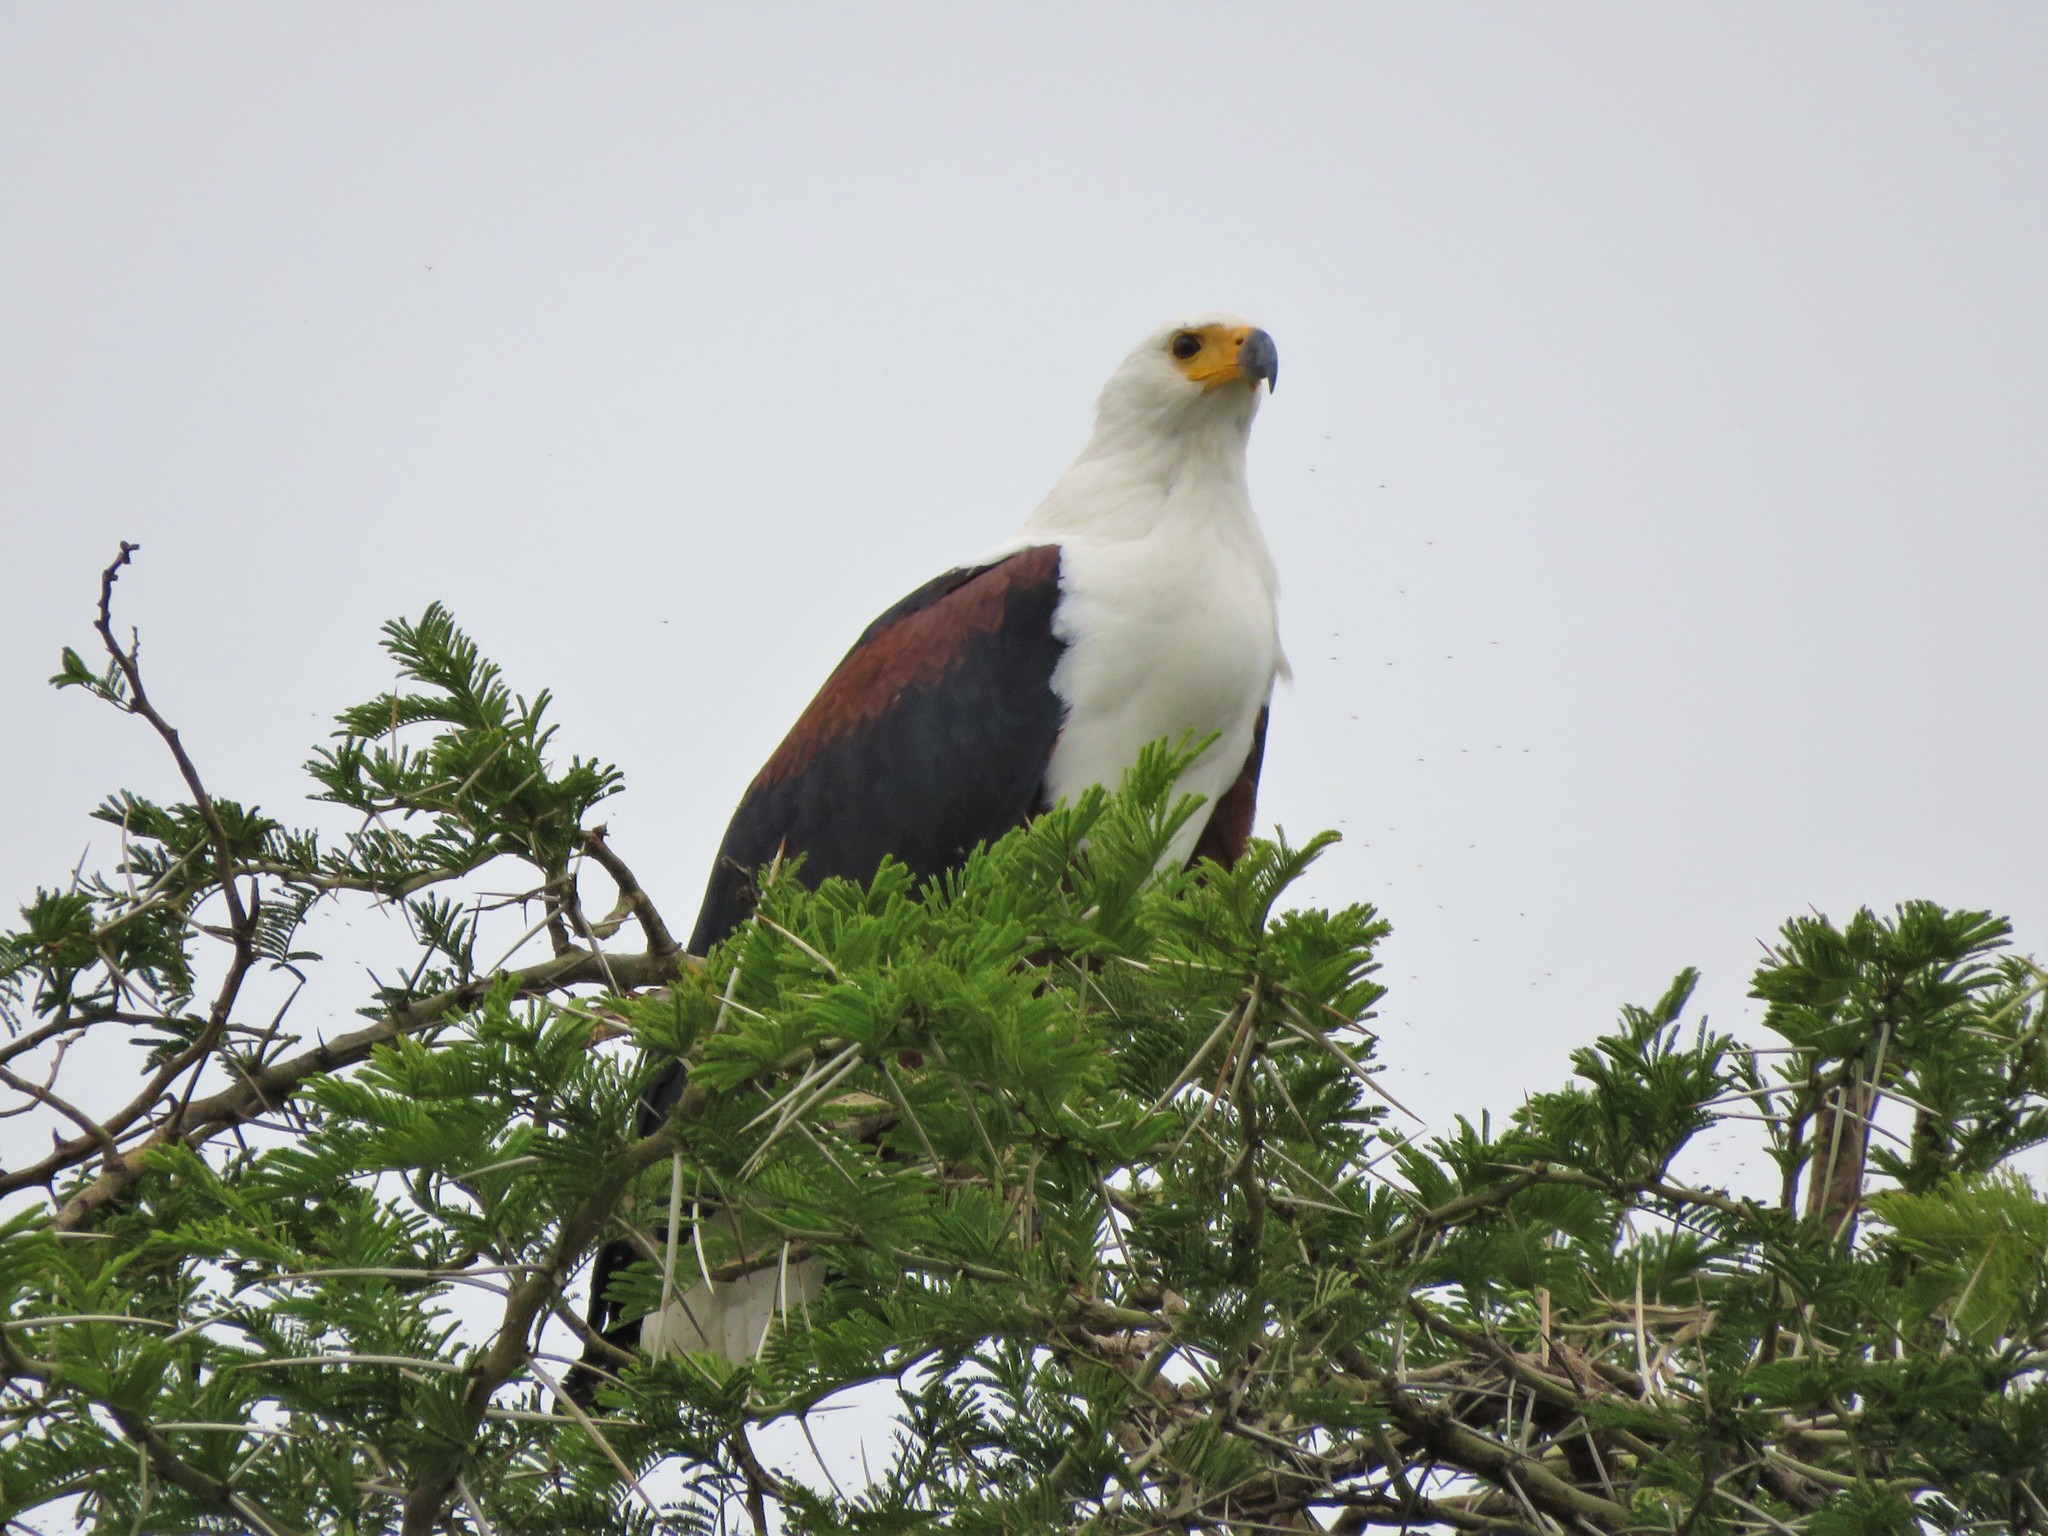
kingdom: Animalia
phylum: Chordata
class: Aves
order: Accipitriformes
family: Accipitridae
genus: Haliaeetus
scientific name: Haliaeetus vocifer
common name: African fish eagle
